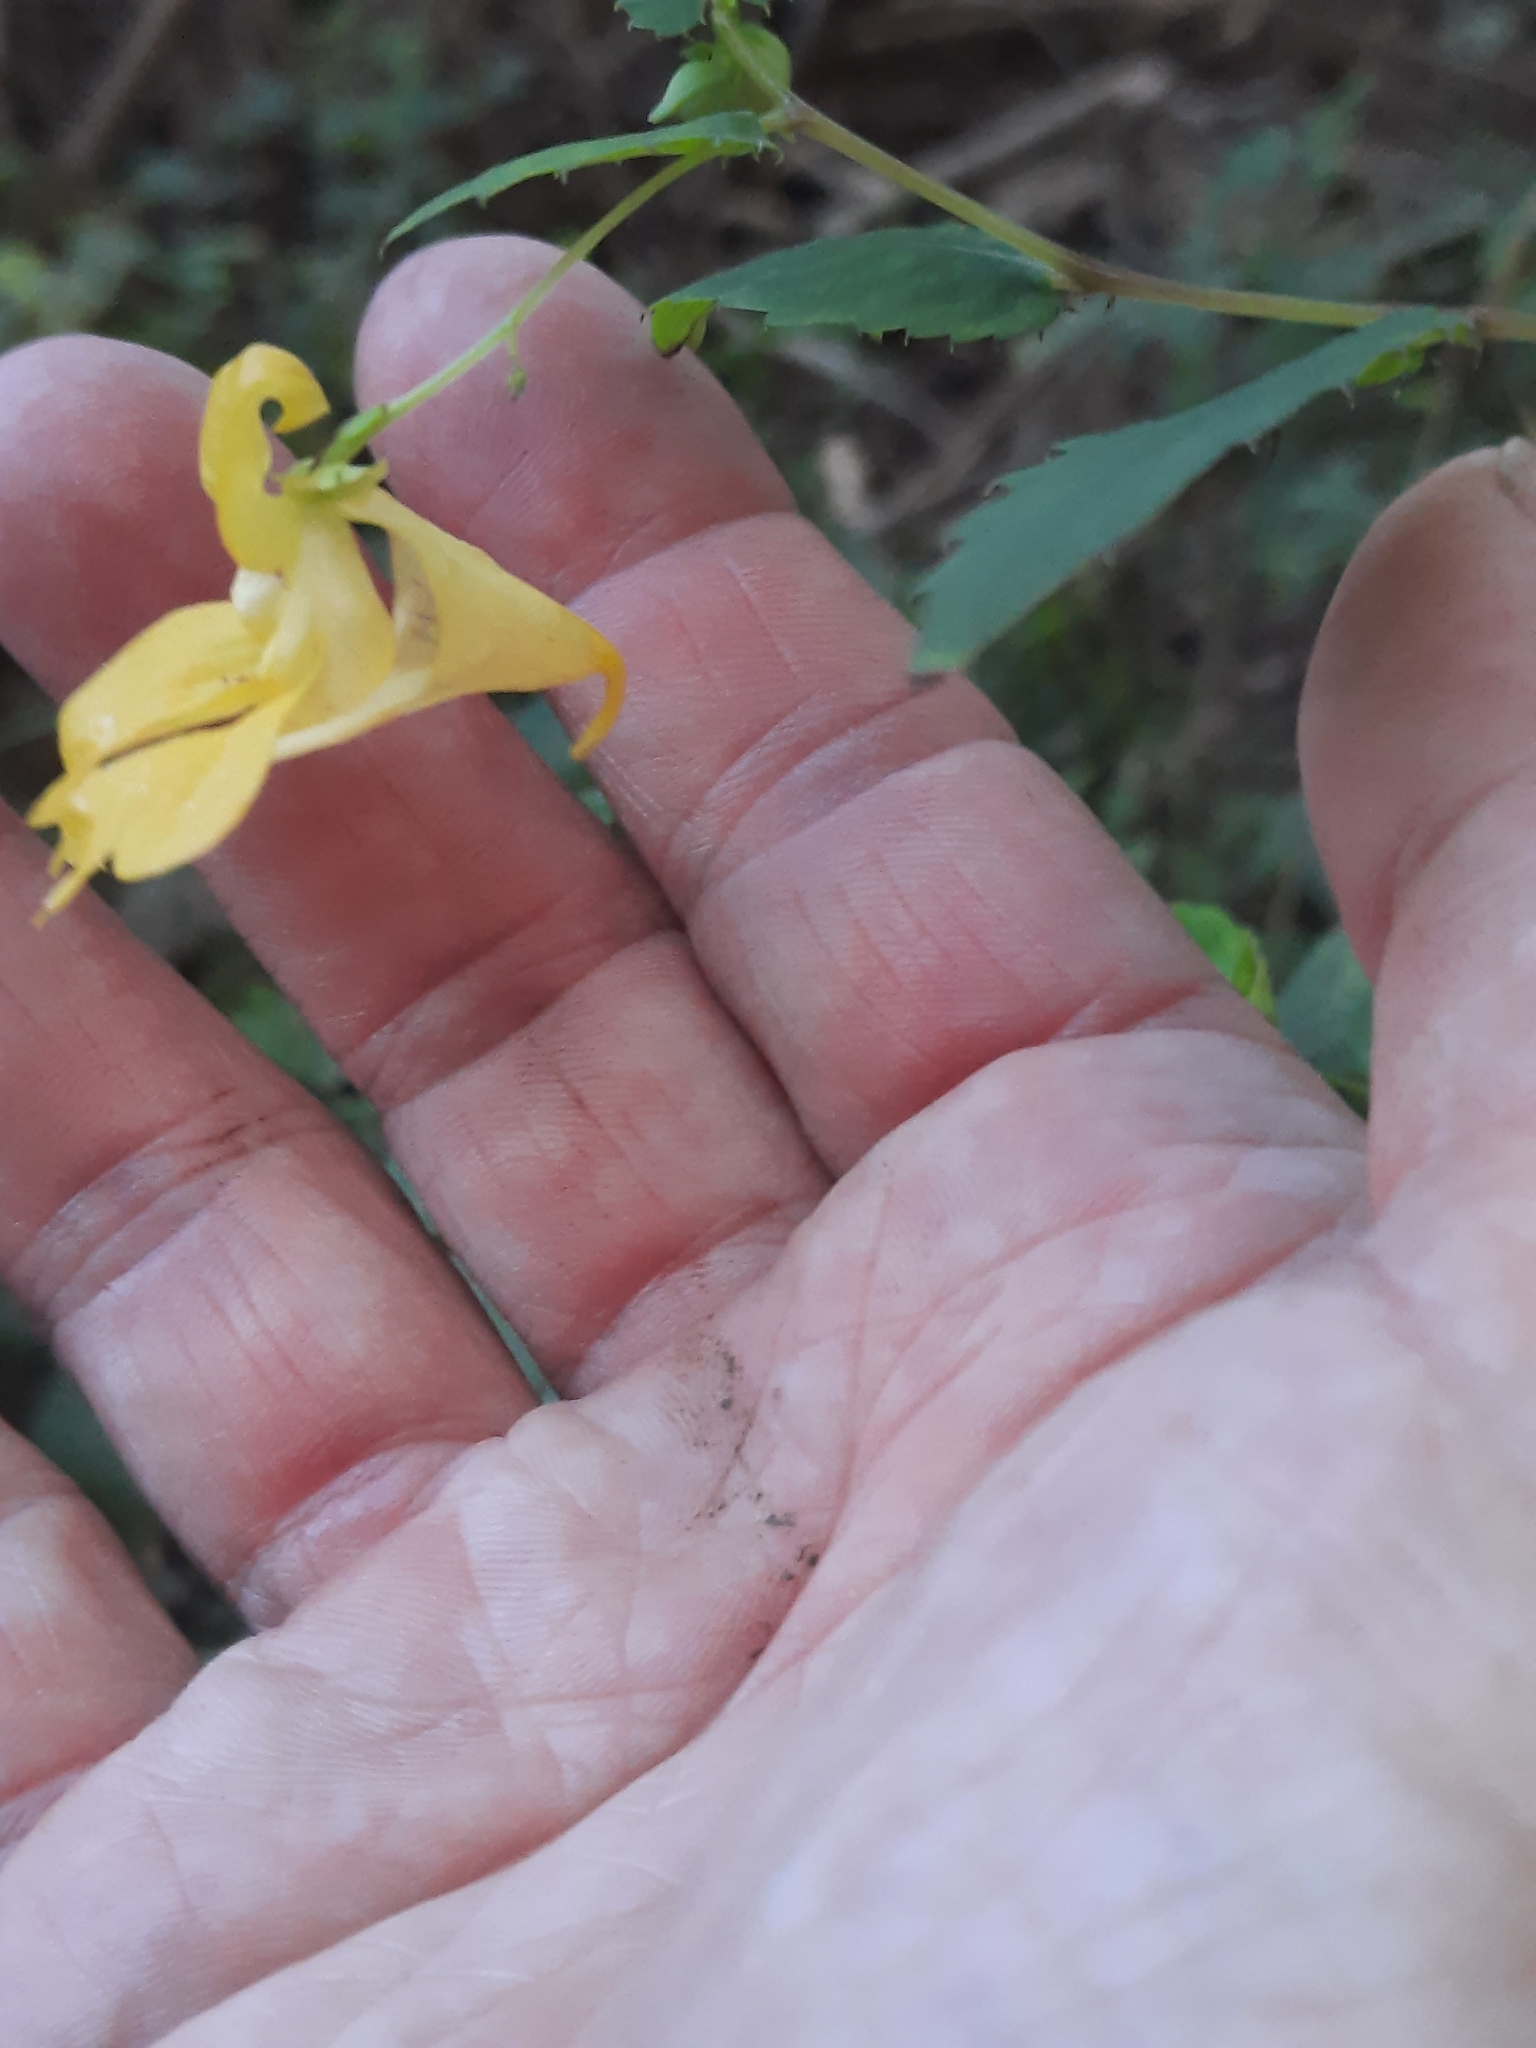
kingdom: Plantae
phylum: Tracheophyta
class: Magnoliopsida
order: Ericales
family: Balsaminaceae
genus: Impatiens
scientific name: Impatiens pallida
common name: Pale snapweed
